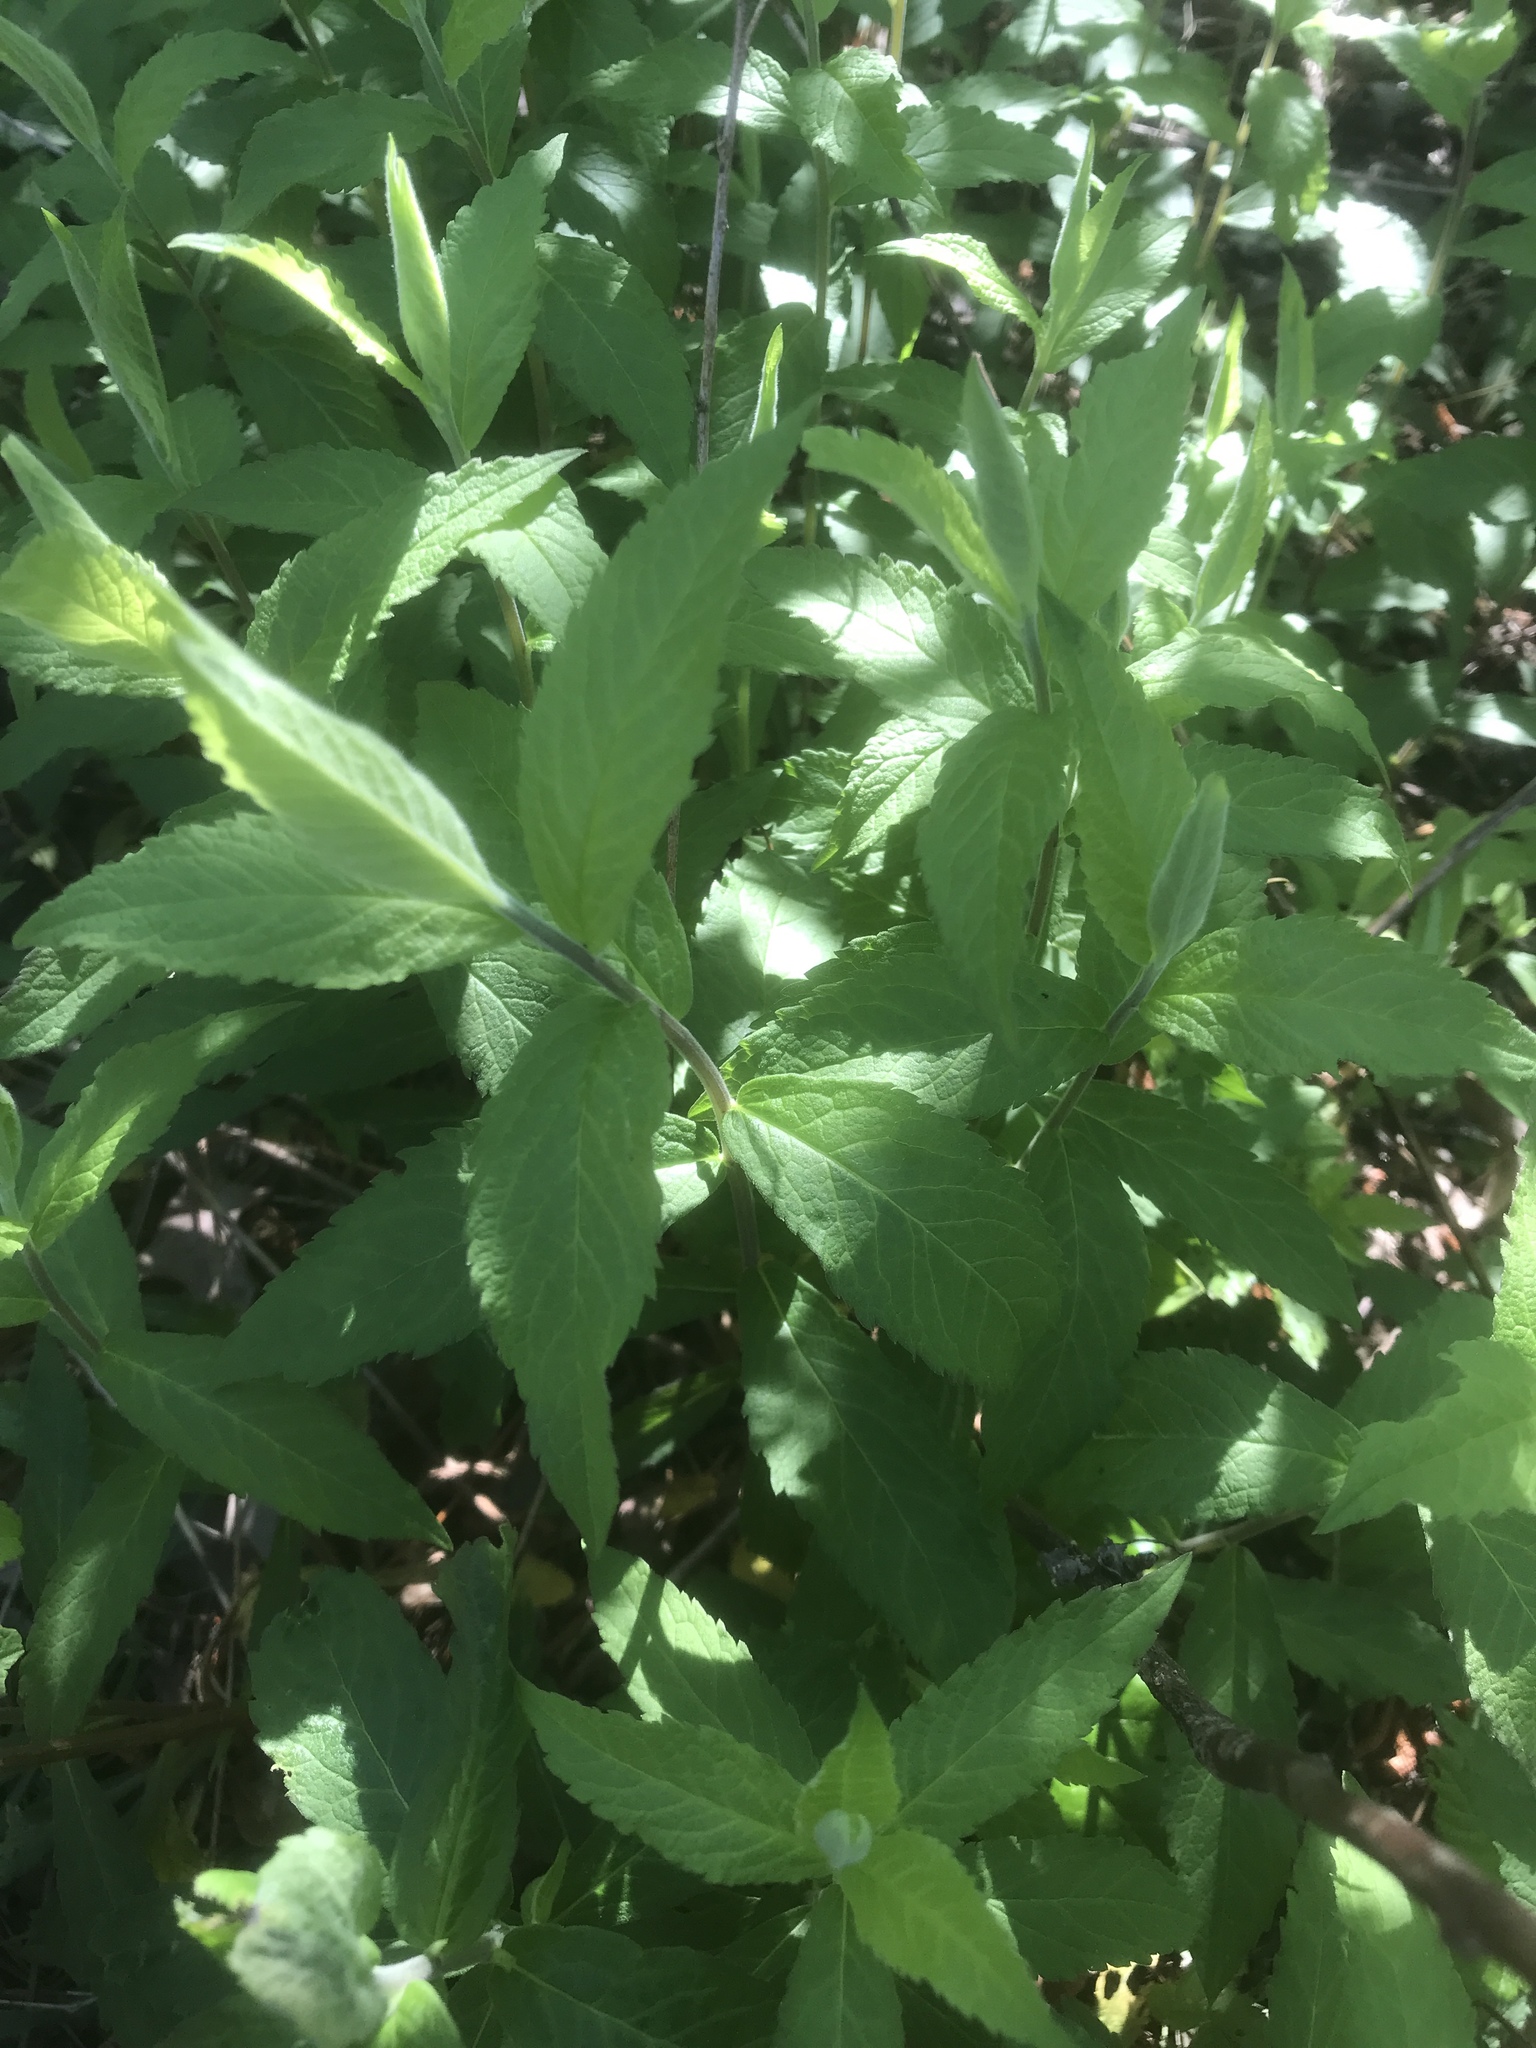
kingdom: Plantae
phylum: Tracheophyta
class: Magnoliopsida
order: Asterales
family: Asteraceae
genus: Solidago
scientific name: Solidago rugosa
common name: Rough-stemmed goldenrod
